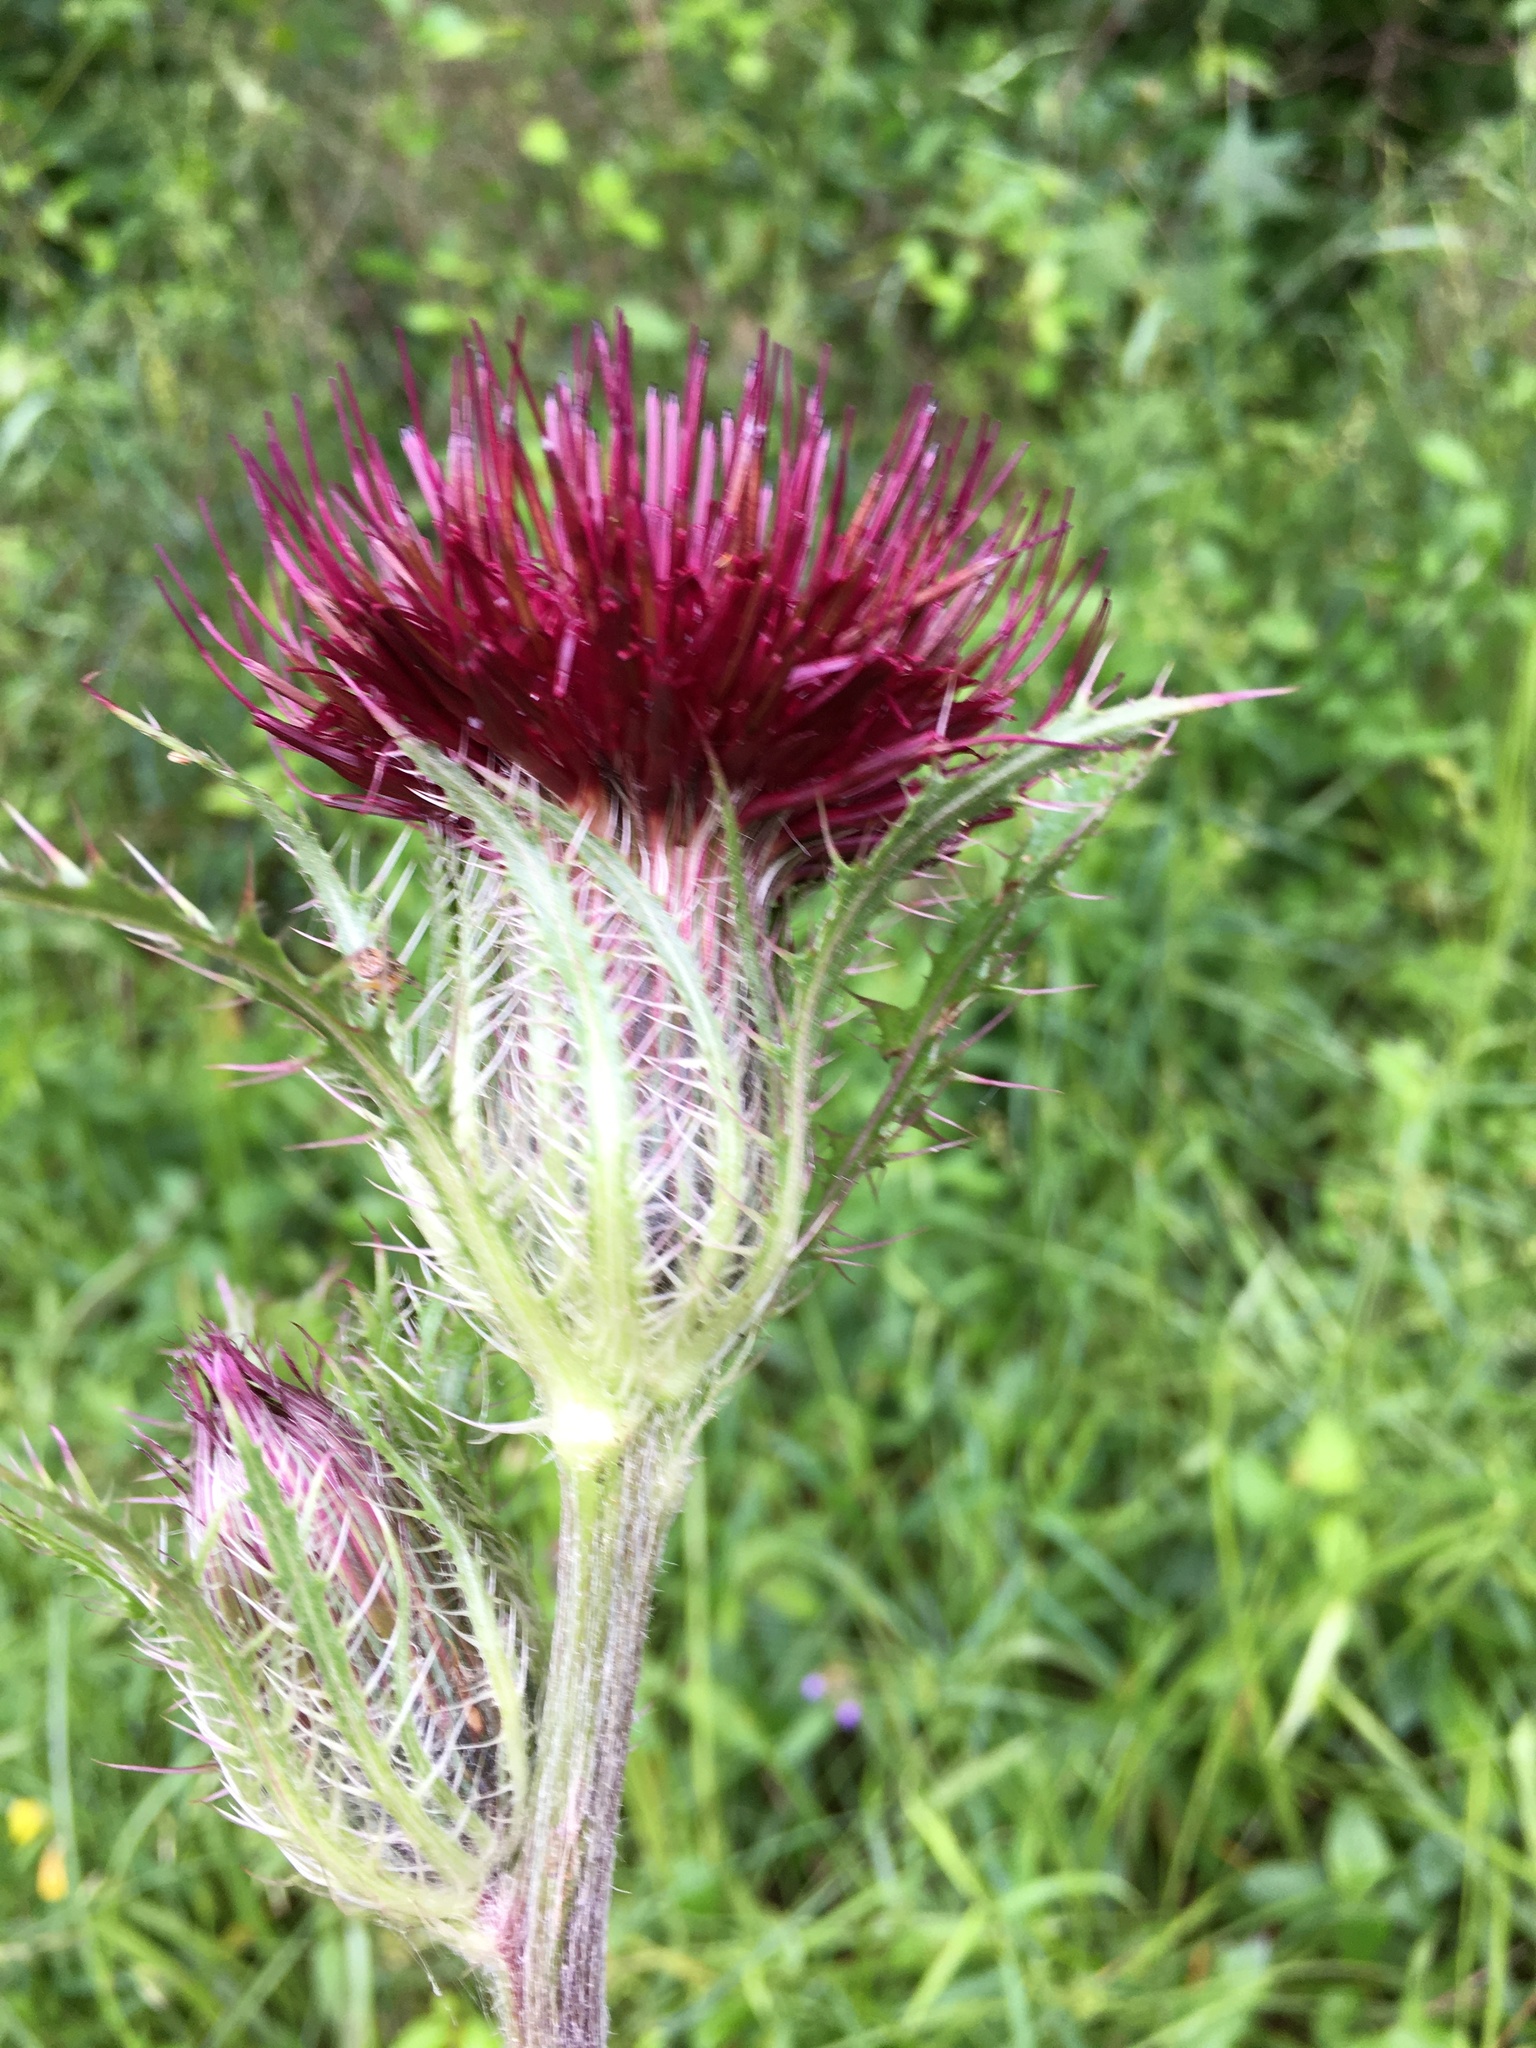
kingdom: Plantae
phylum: Tracheophyta
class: Magnoliopsida
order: Asterales
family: Asteraceae
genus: Cirsium
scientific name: Cirsium horridulum
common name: Bristly thistle
